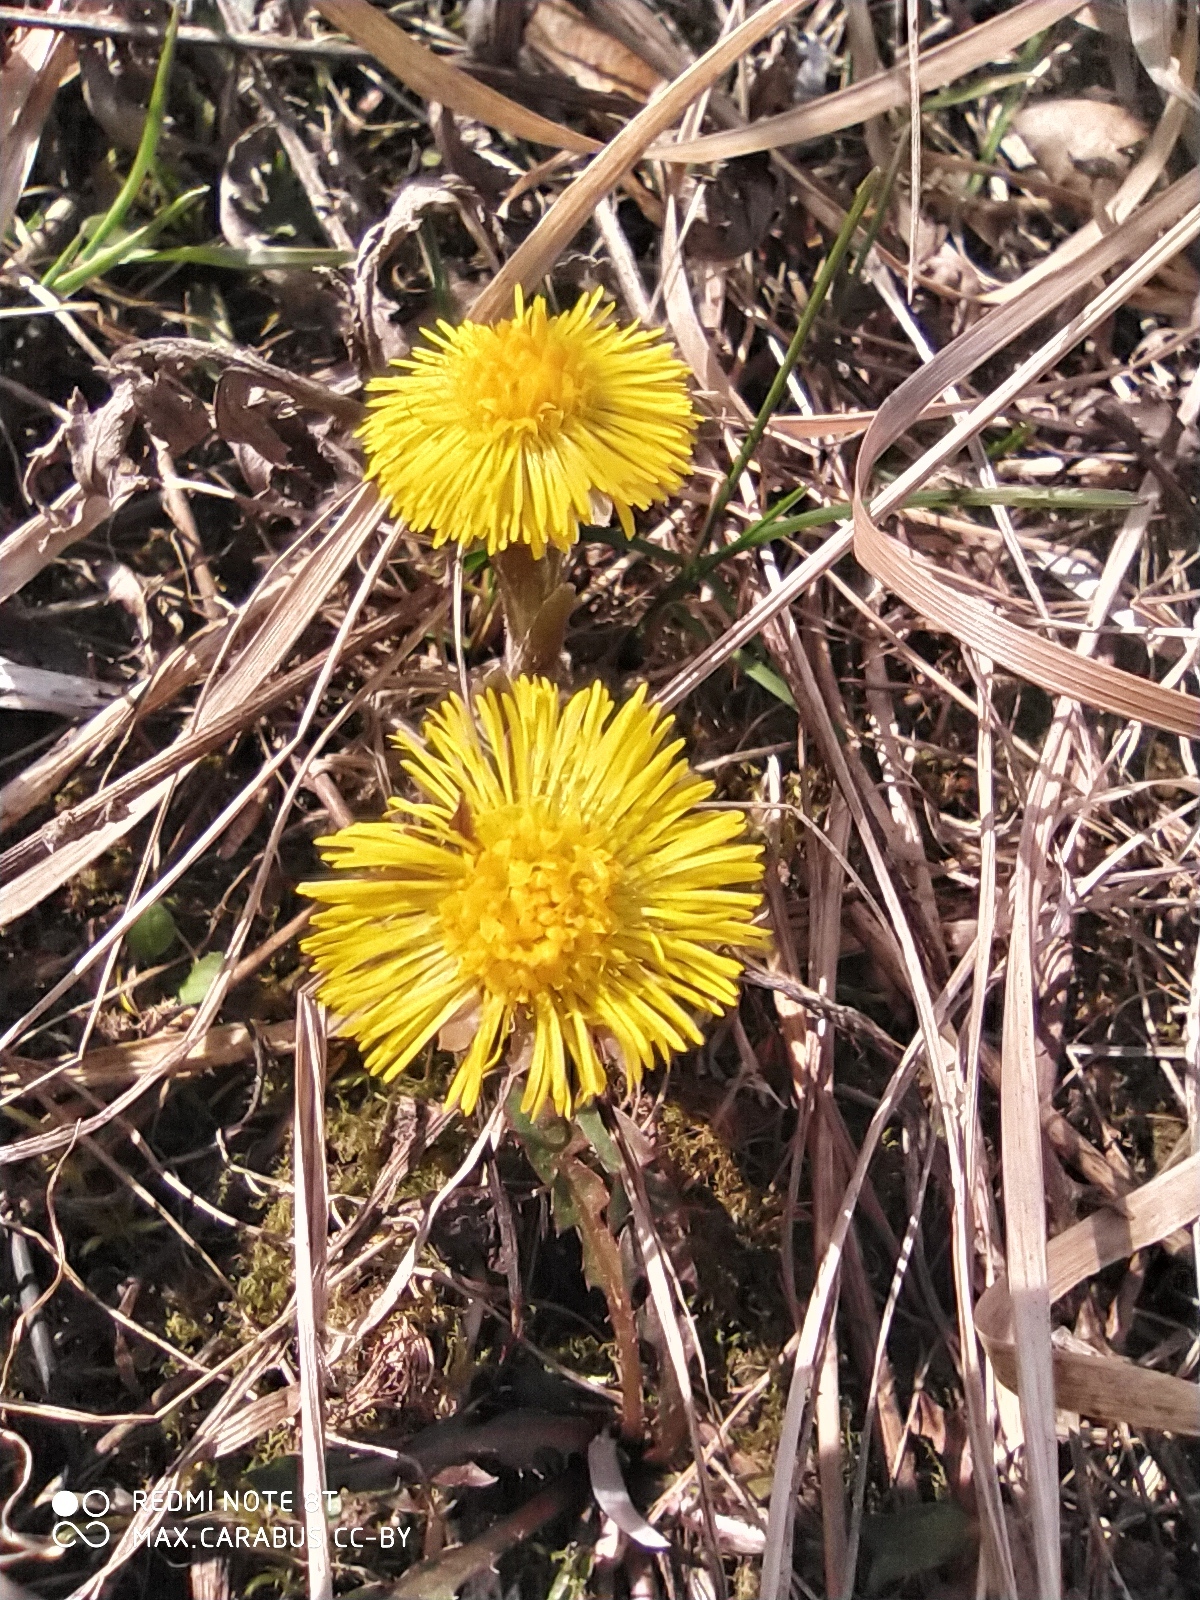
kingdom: Plantae
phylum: Tracheophyta
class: Magnoliopsida
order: Asterales
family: Asteraceae
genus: Tussilago
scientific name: Tussilago farfara
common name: Coltsfoot
